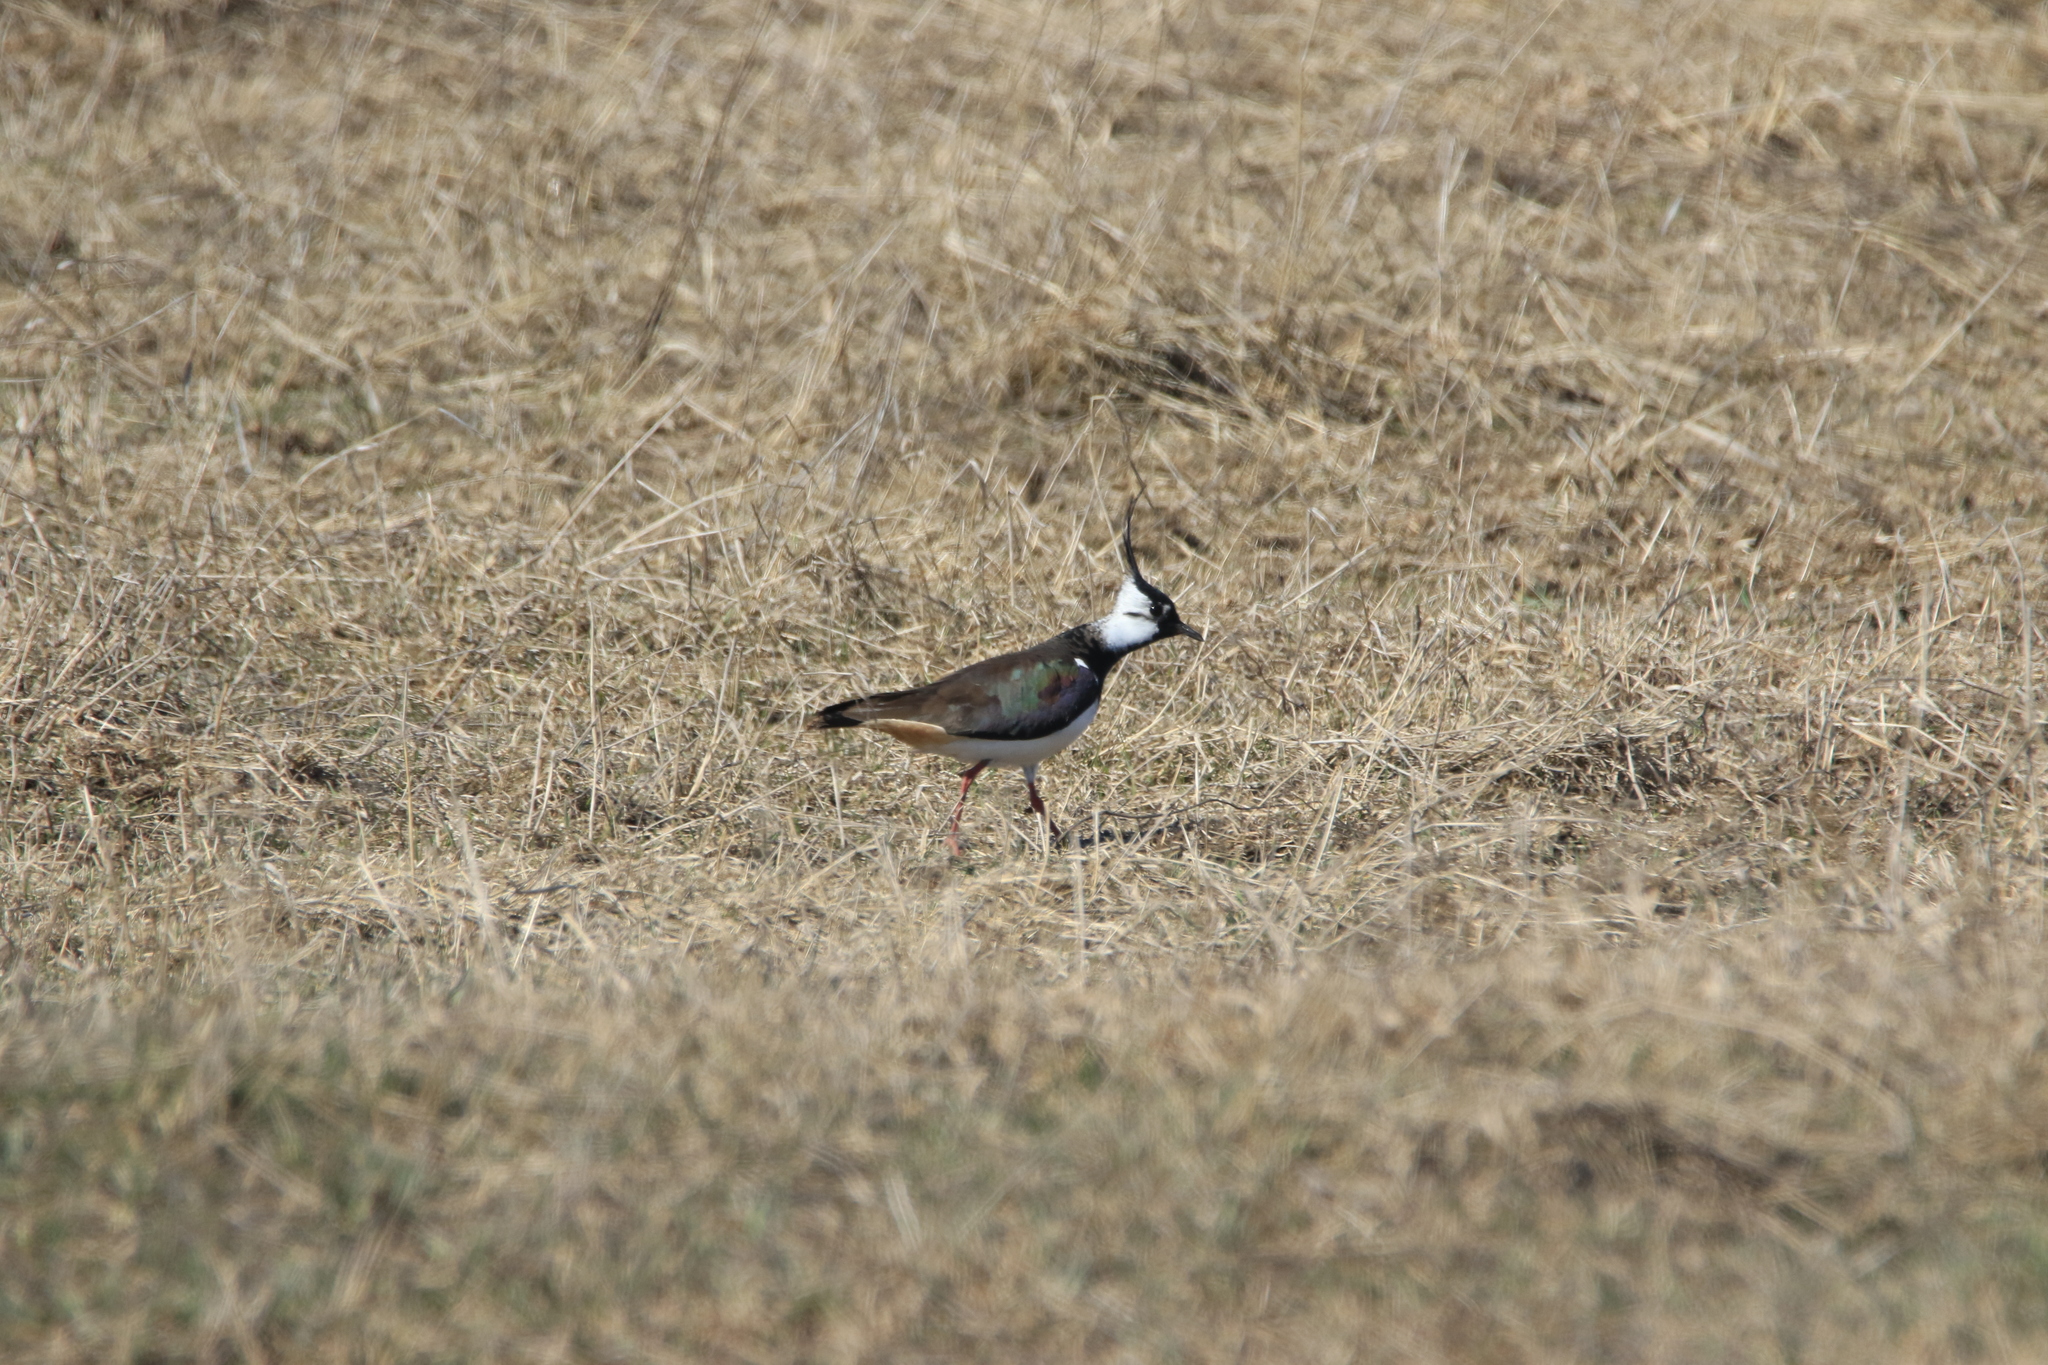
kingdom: Animalia
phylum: Chordata
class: Aves
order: Charadriiformes
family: Charadriidae
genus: Vanellus
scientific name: Vanellus vanellus
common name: Northern lapwing
